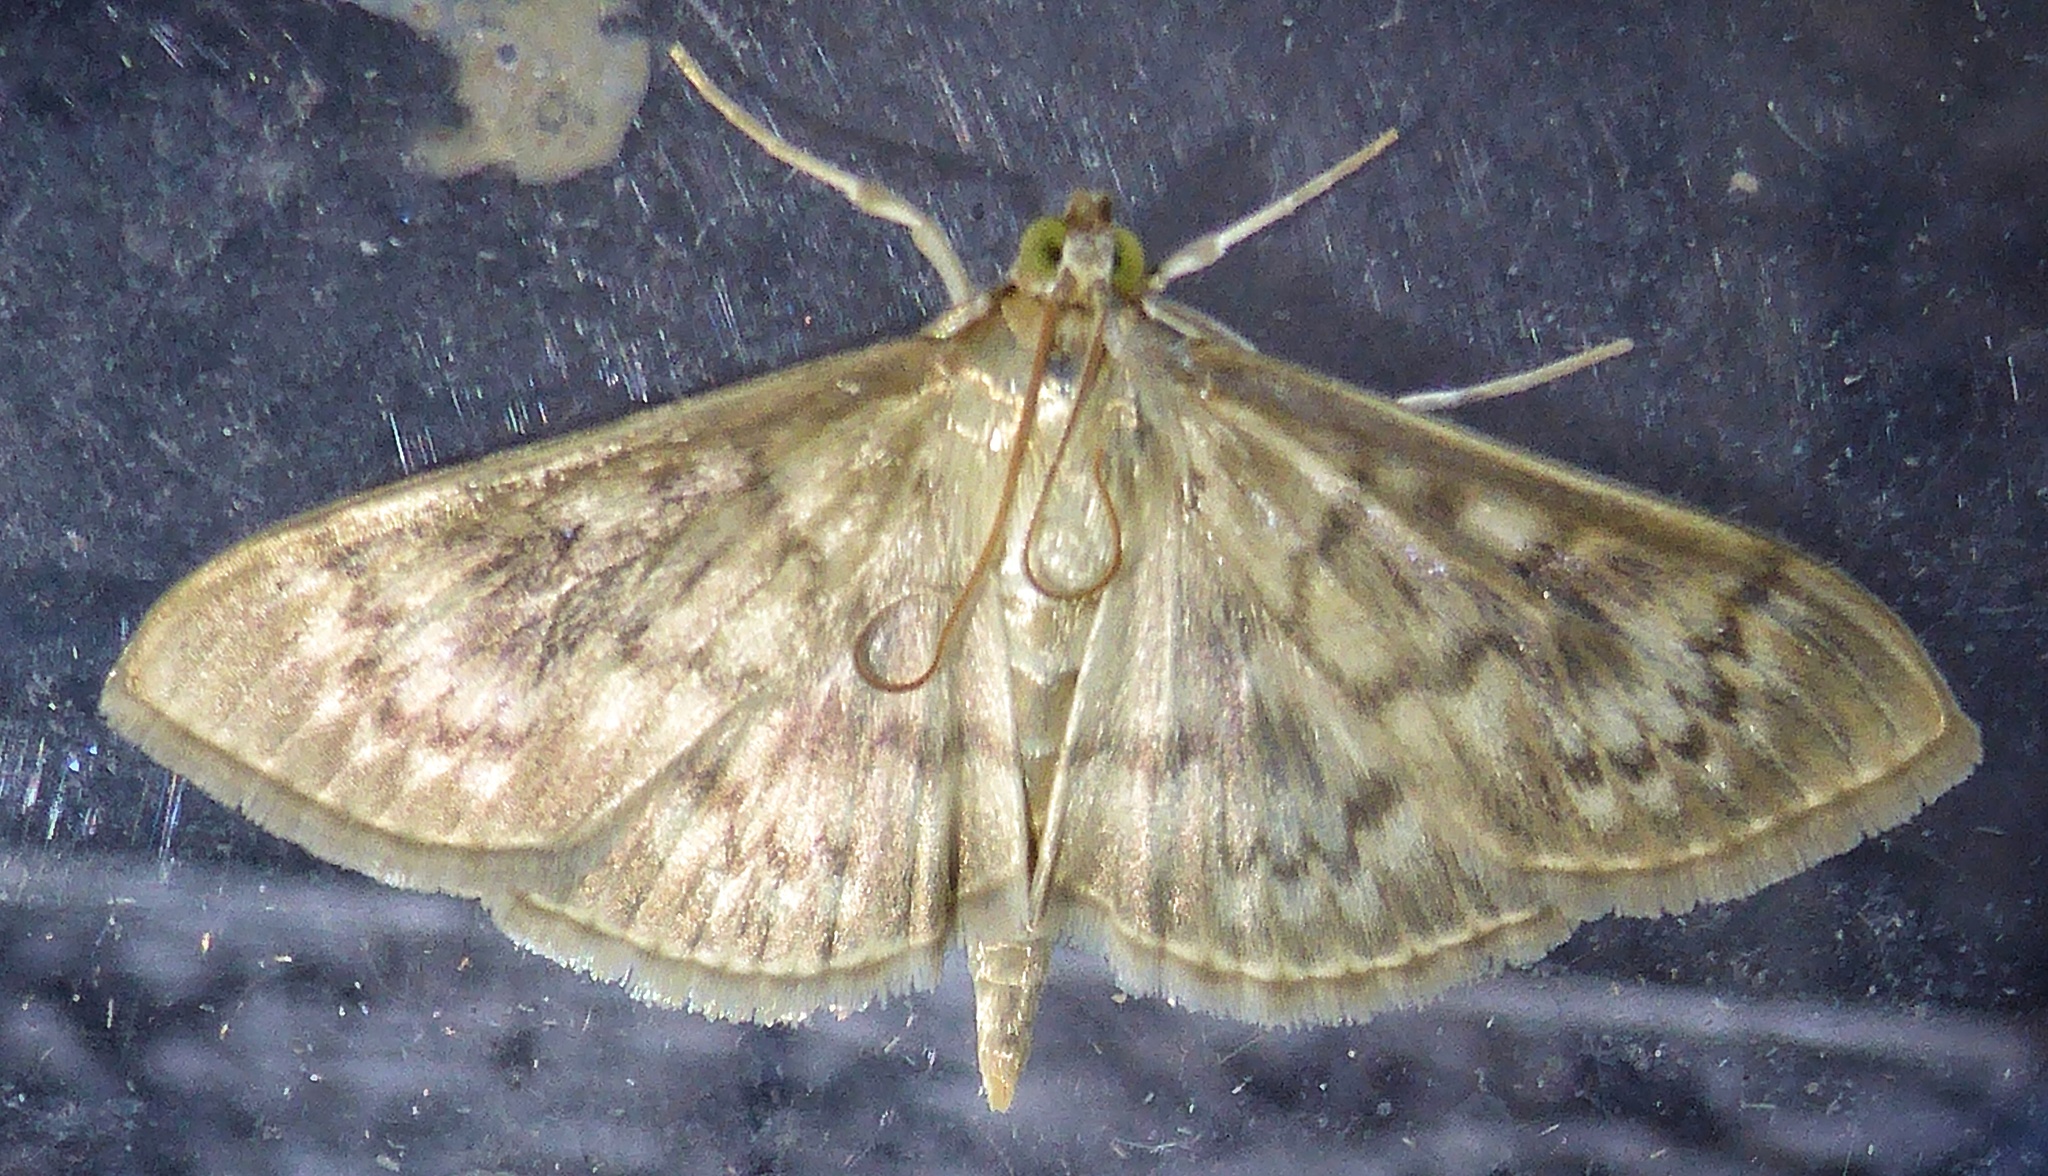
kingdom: Animalia
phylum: Arthropoda
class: Insecta
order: Lepidoptera
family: Crambidae
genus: Patania
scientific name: Patania ruralis
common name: Mother of pearl
